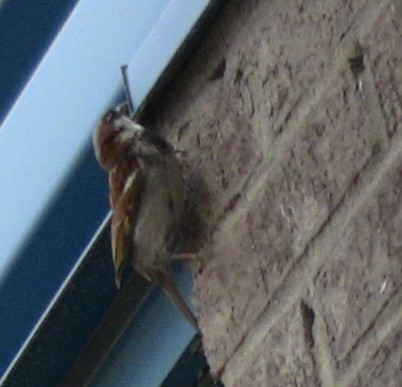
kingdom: Animalia
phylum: Chordata
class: Aves
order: Passeriformes
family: Passeridae
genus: Passer
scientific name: Passer domesticus
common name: House sparrow
